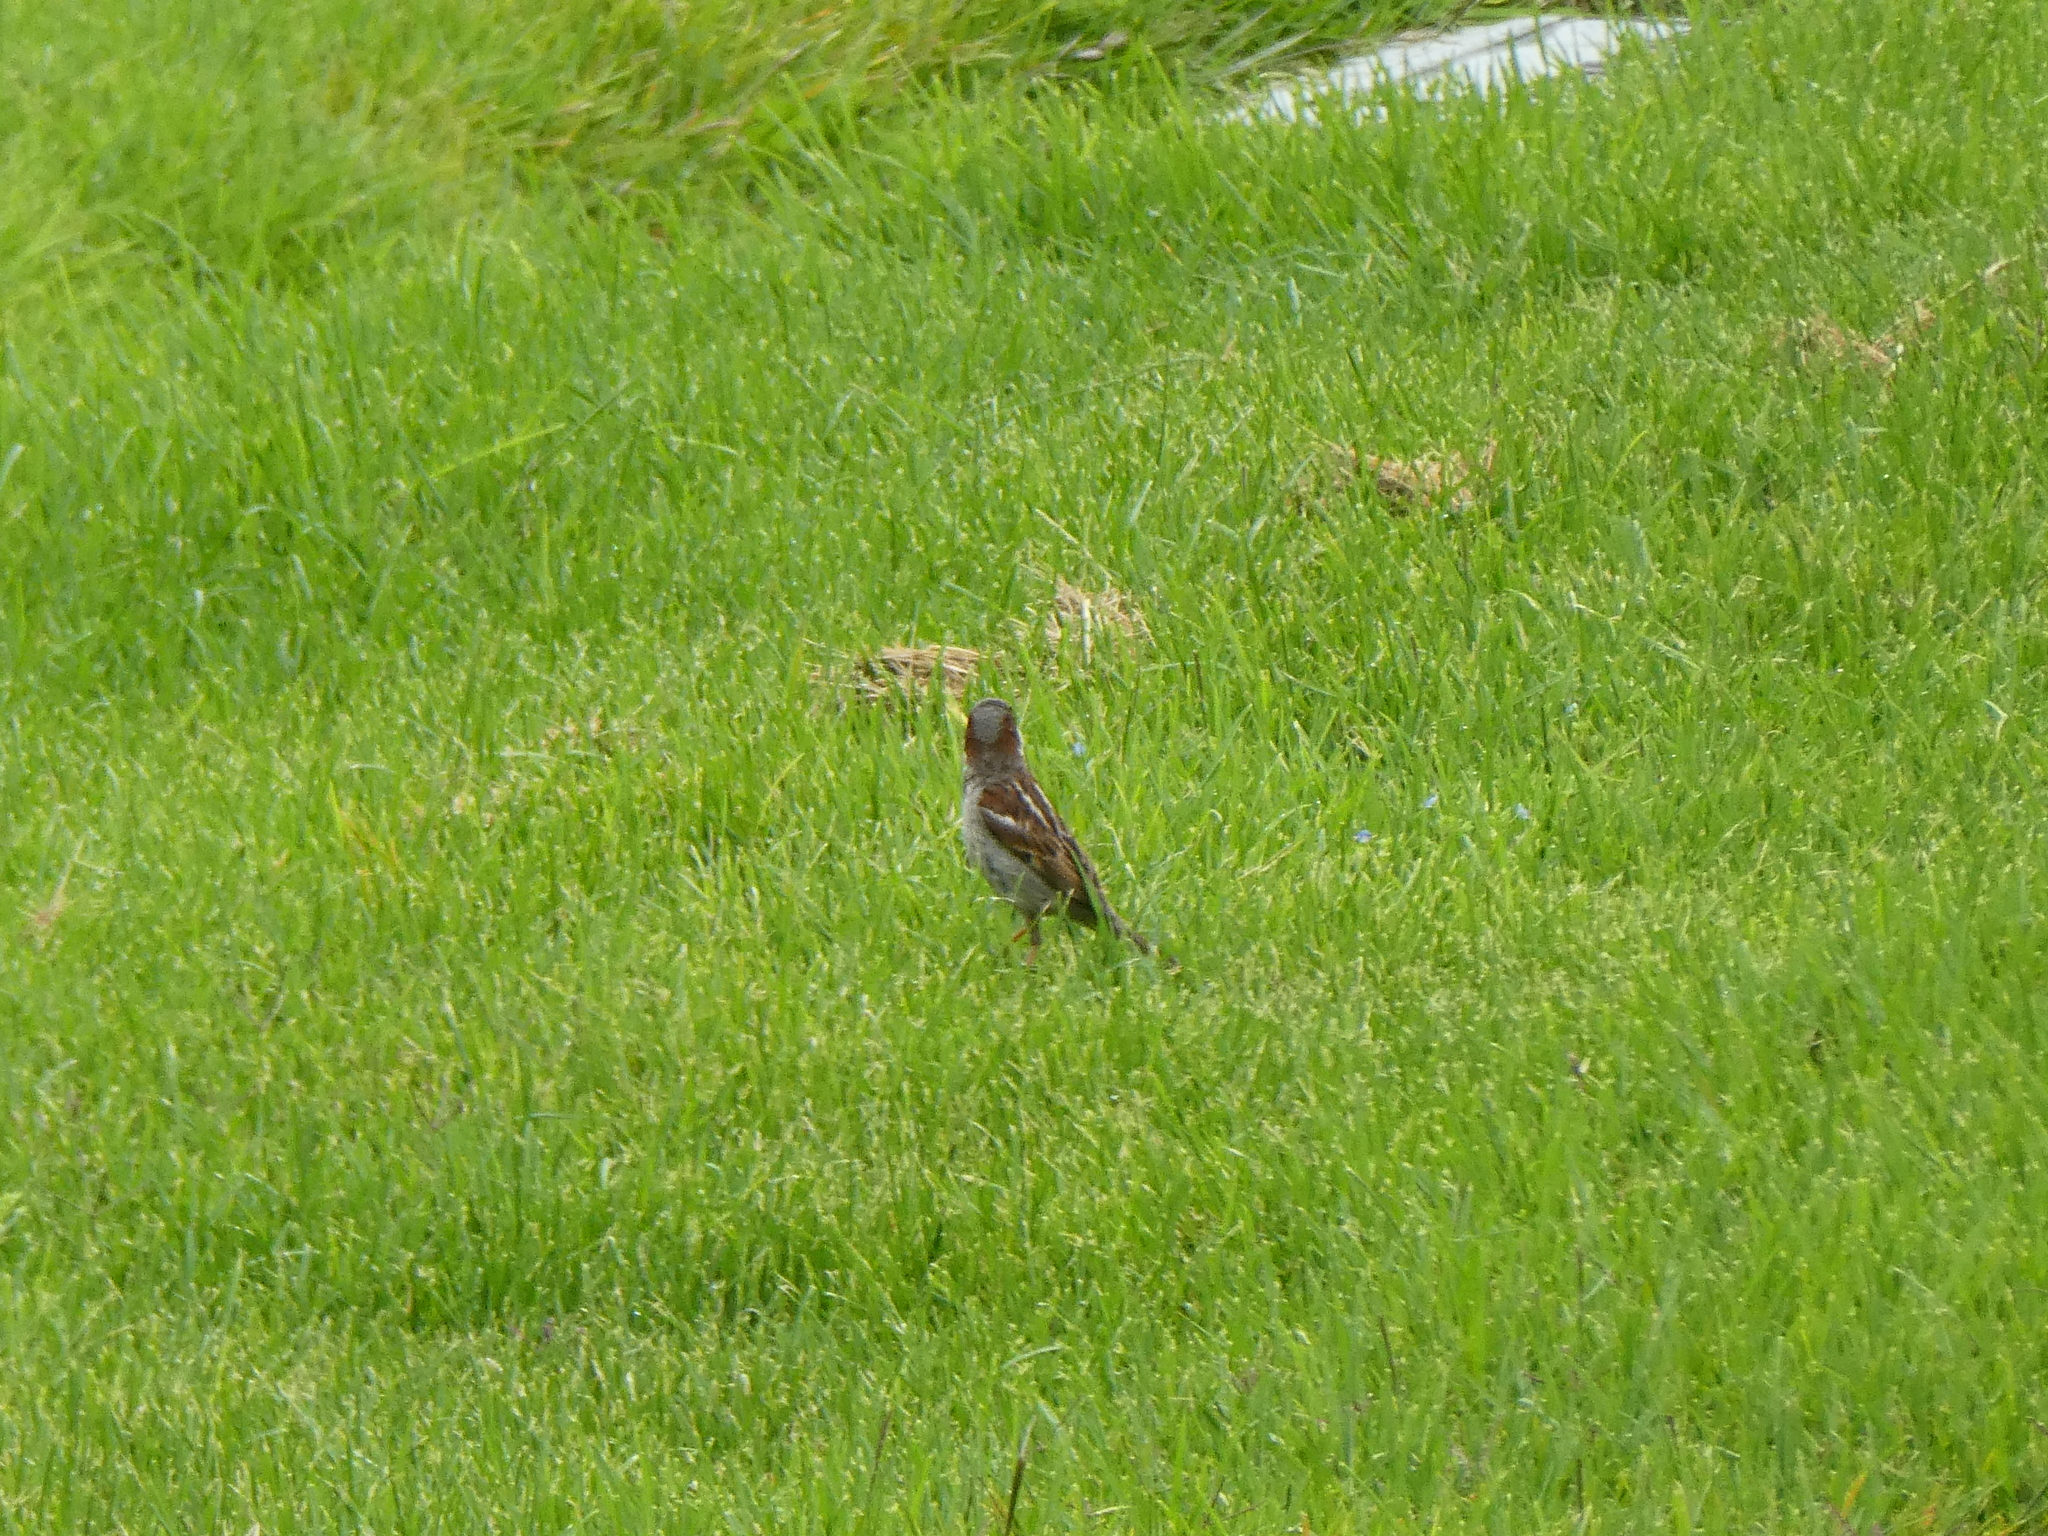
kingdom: Animalia
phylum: Chordata
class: Aves
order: Passeriformes
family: Passeridae
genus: Passer
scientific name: Passer domesticus
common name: House sparrow
